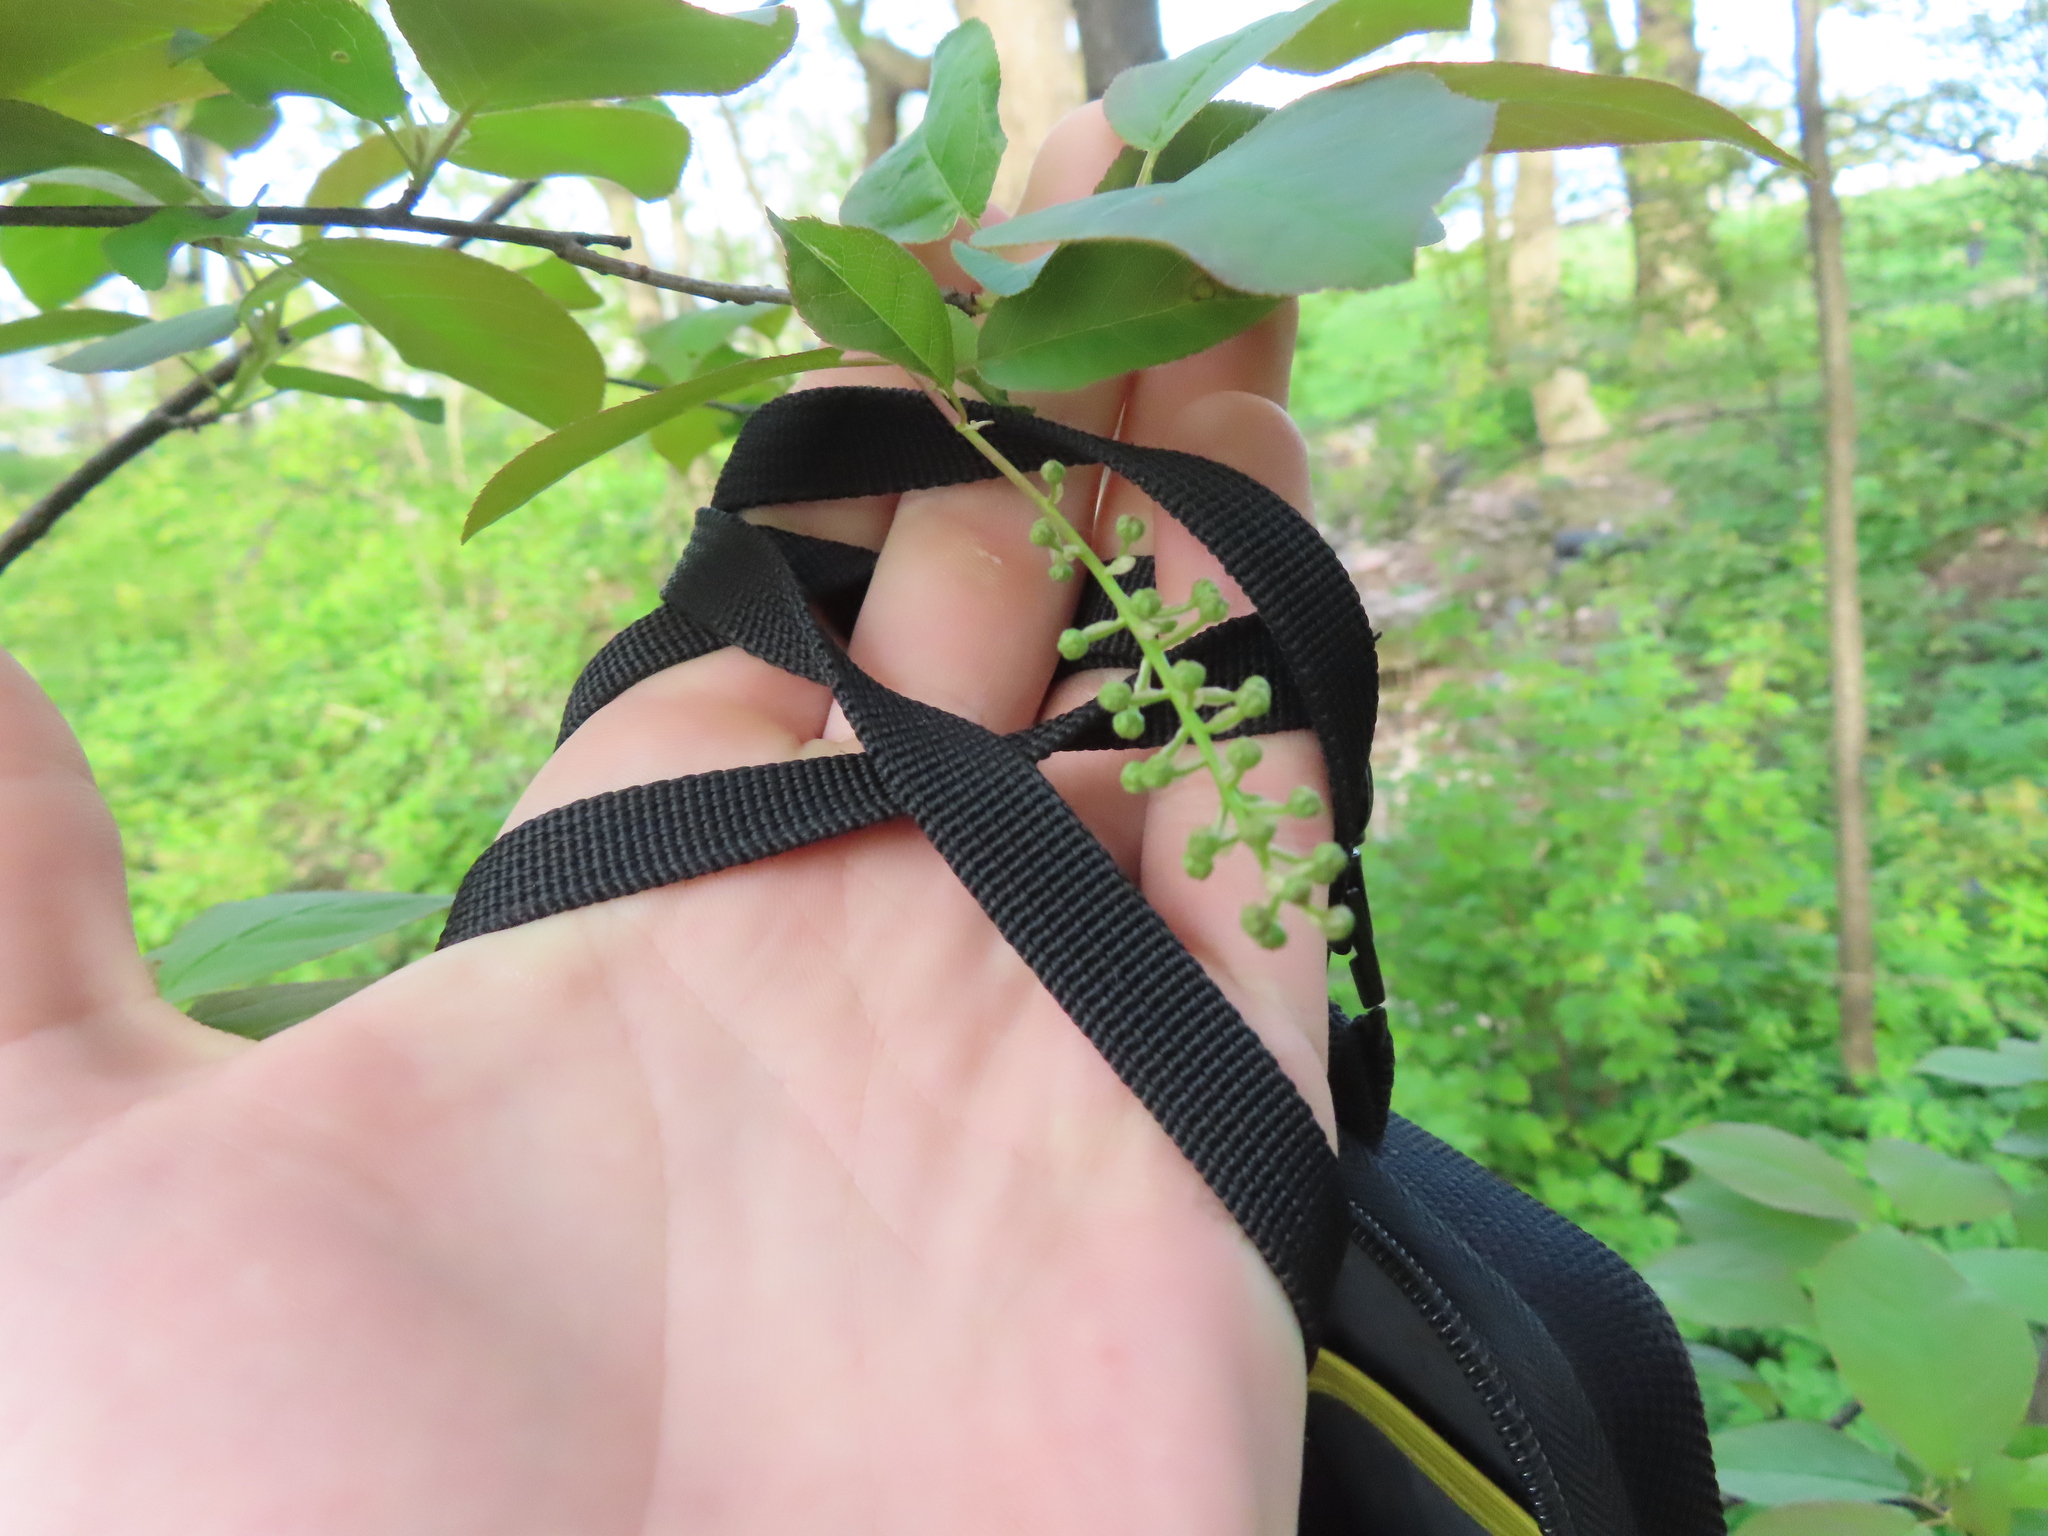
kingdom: Plantae
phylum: Tracheophyta
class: Magnoliopsida
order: Rosales
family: Rosaceae
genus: Prunus
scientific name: Prunus virginiana
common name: Chokecherry
